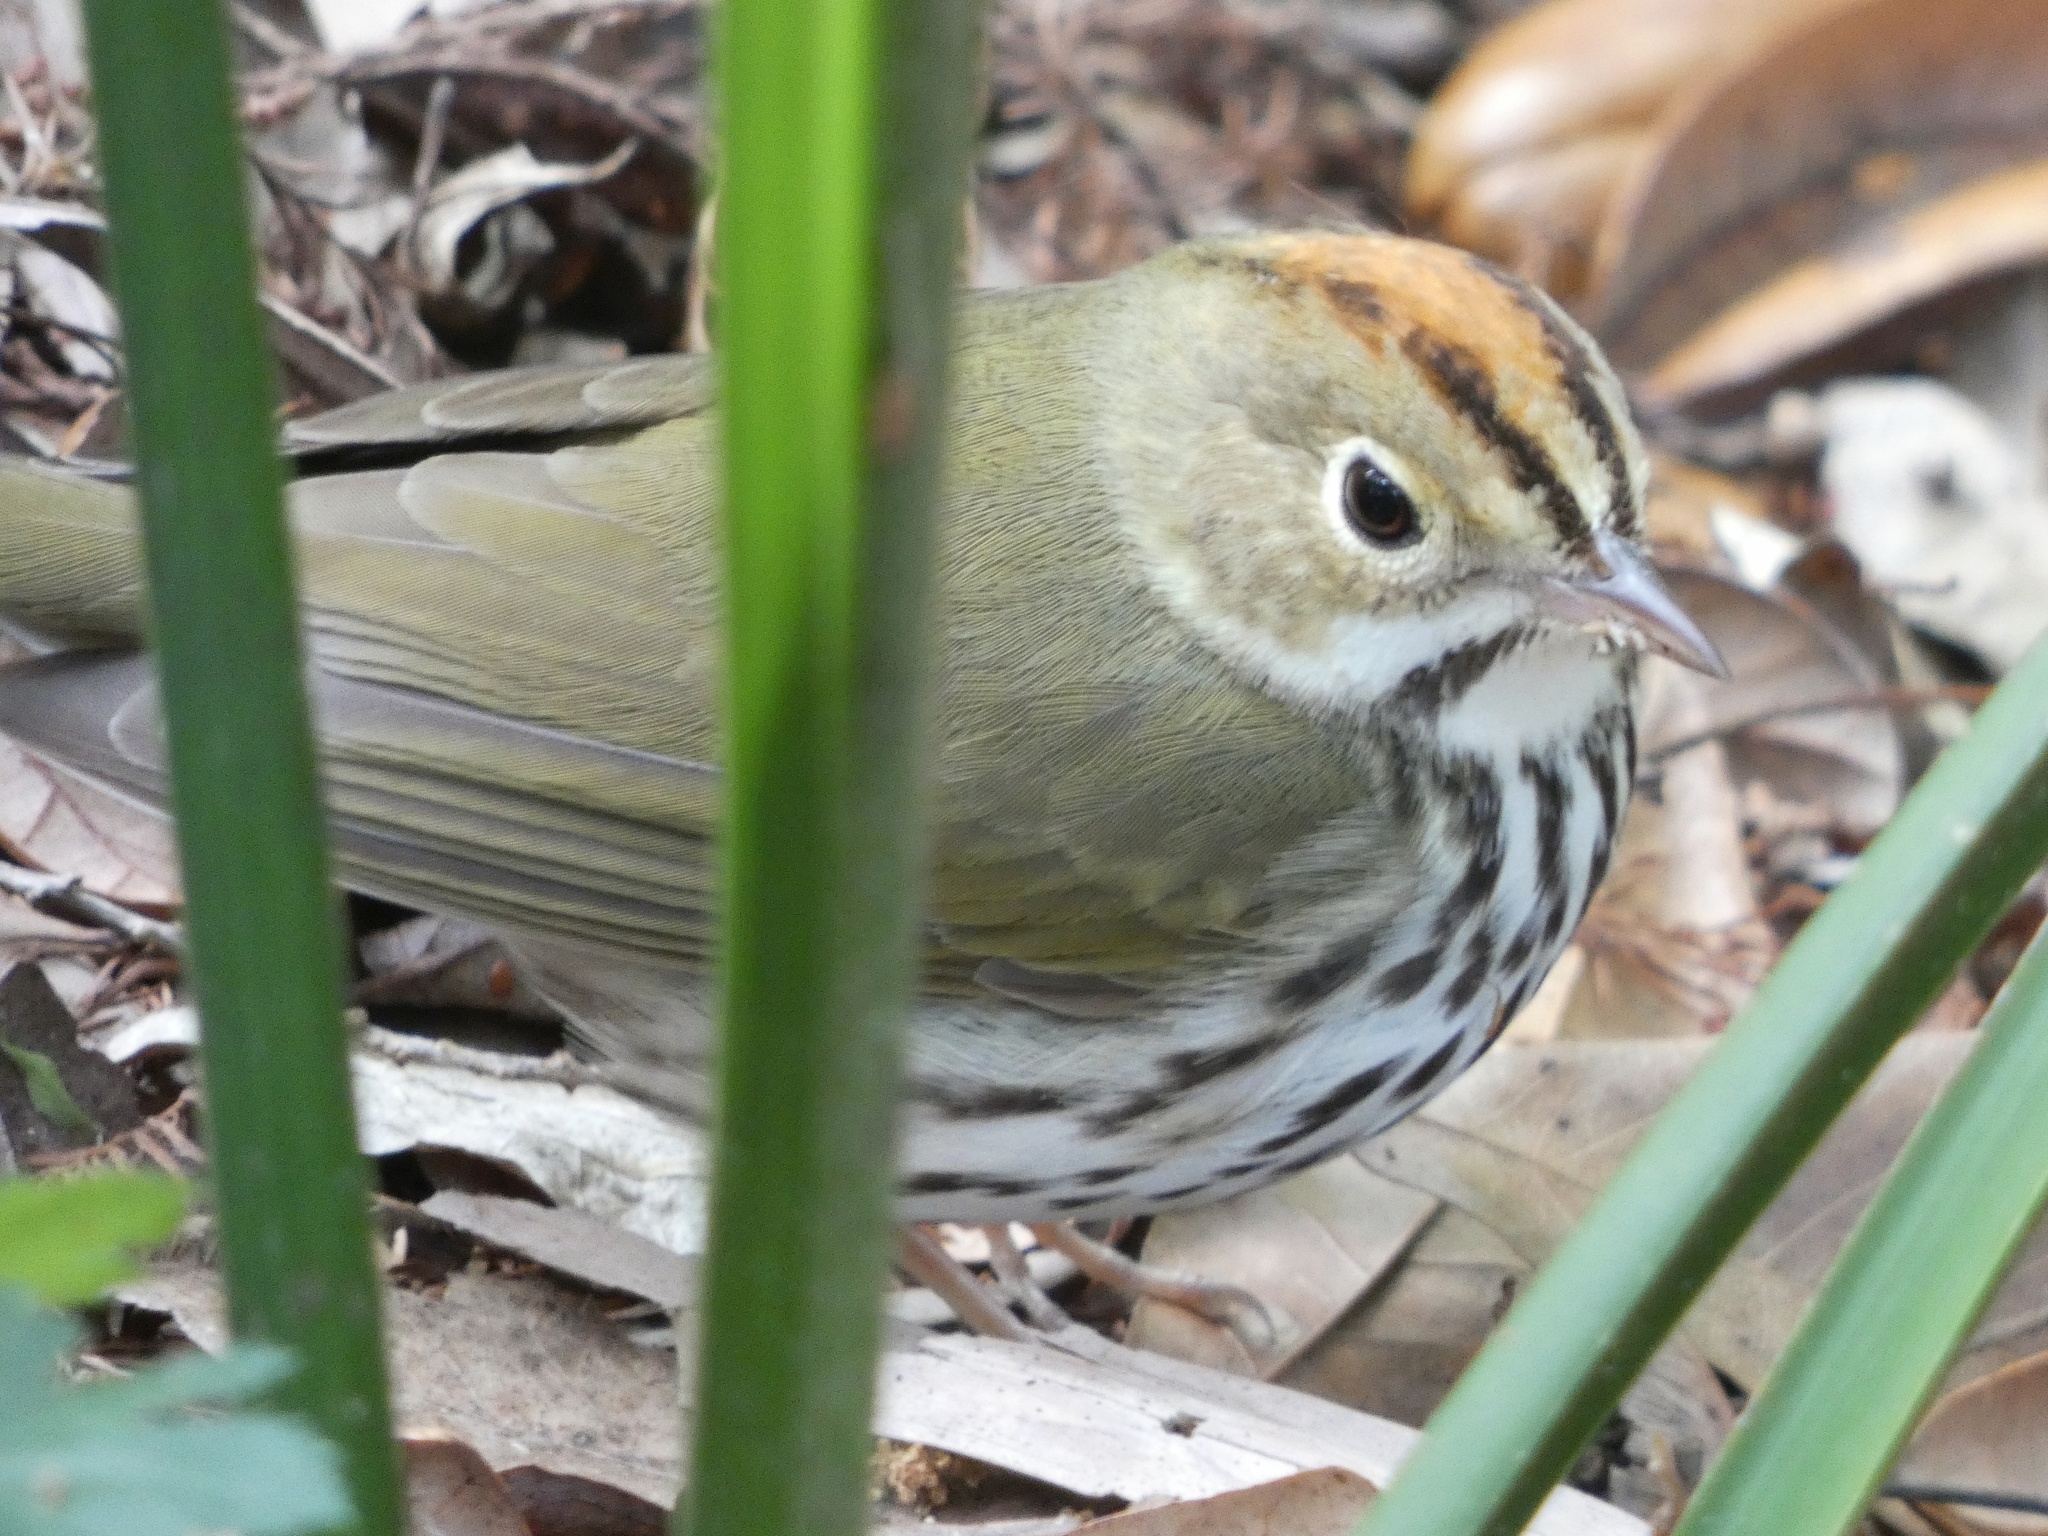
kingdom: Animalia
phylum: Chordata
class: Aves
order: Passeriformes
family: Parulidae
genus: Seiurus
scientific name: Seiurus aurocapilla
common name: Ovenbird
